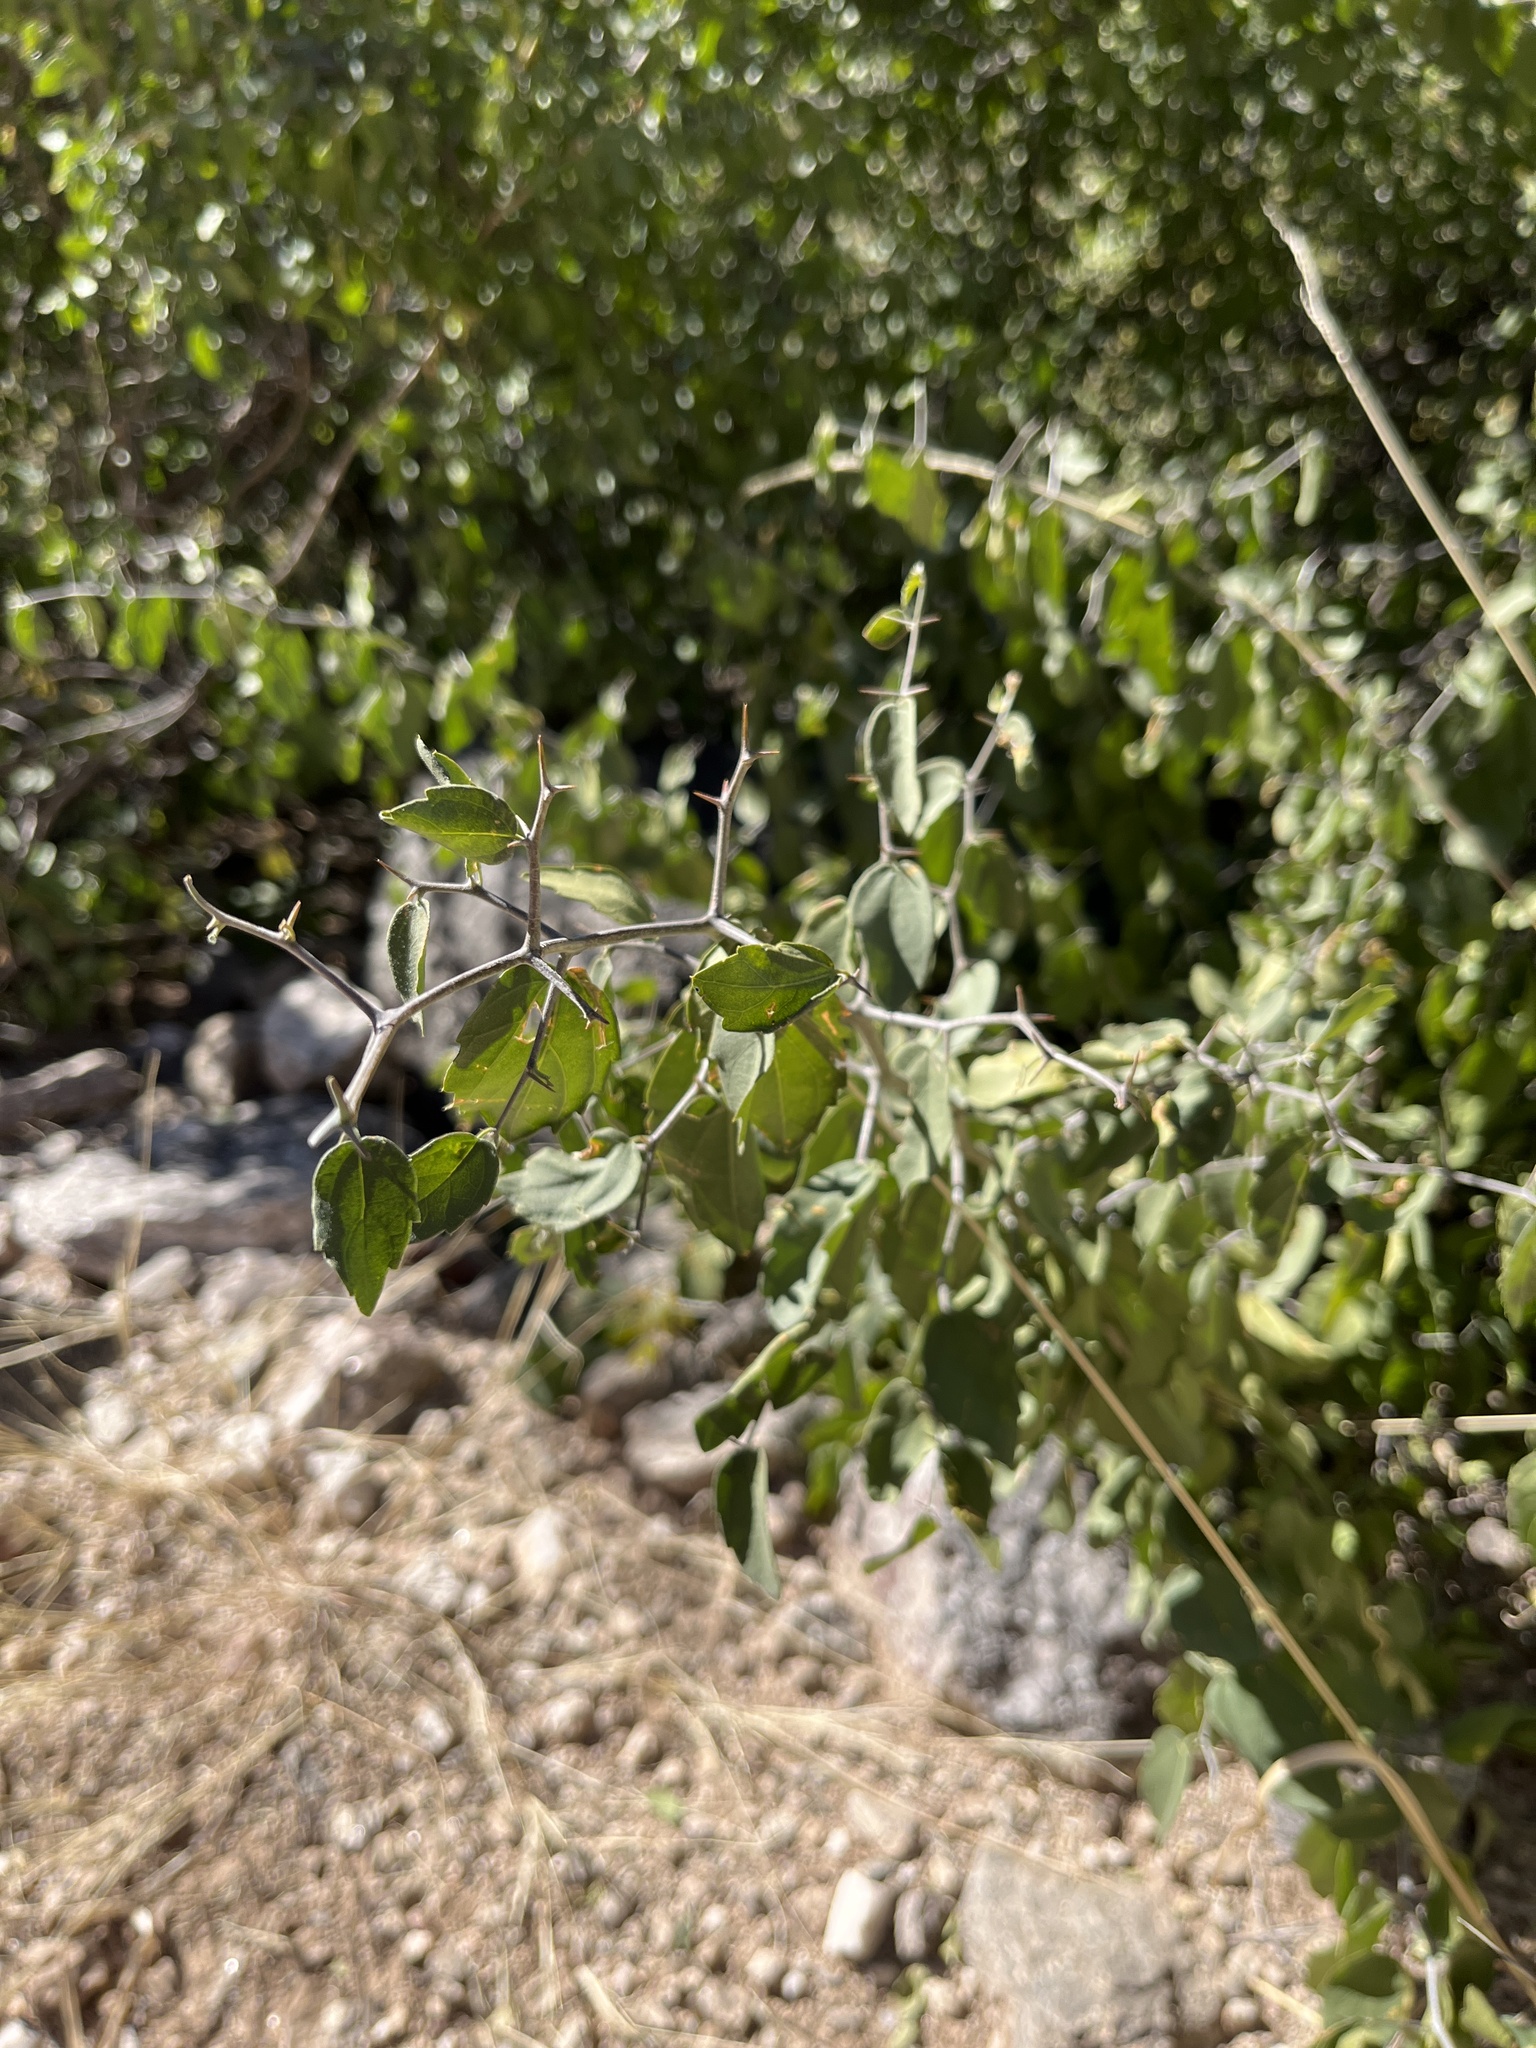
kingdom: Plantae
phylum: Tracheophyta
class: Magnoliopsida
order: Rosales
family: Cannabaceae
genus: Celtis
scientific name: Celtis pallida
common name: Desert hackberry
